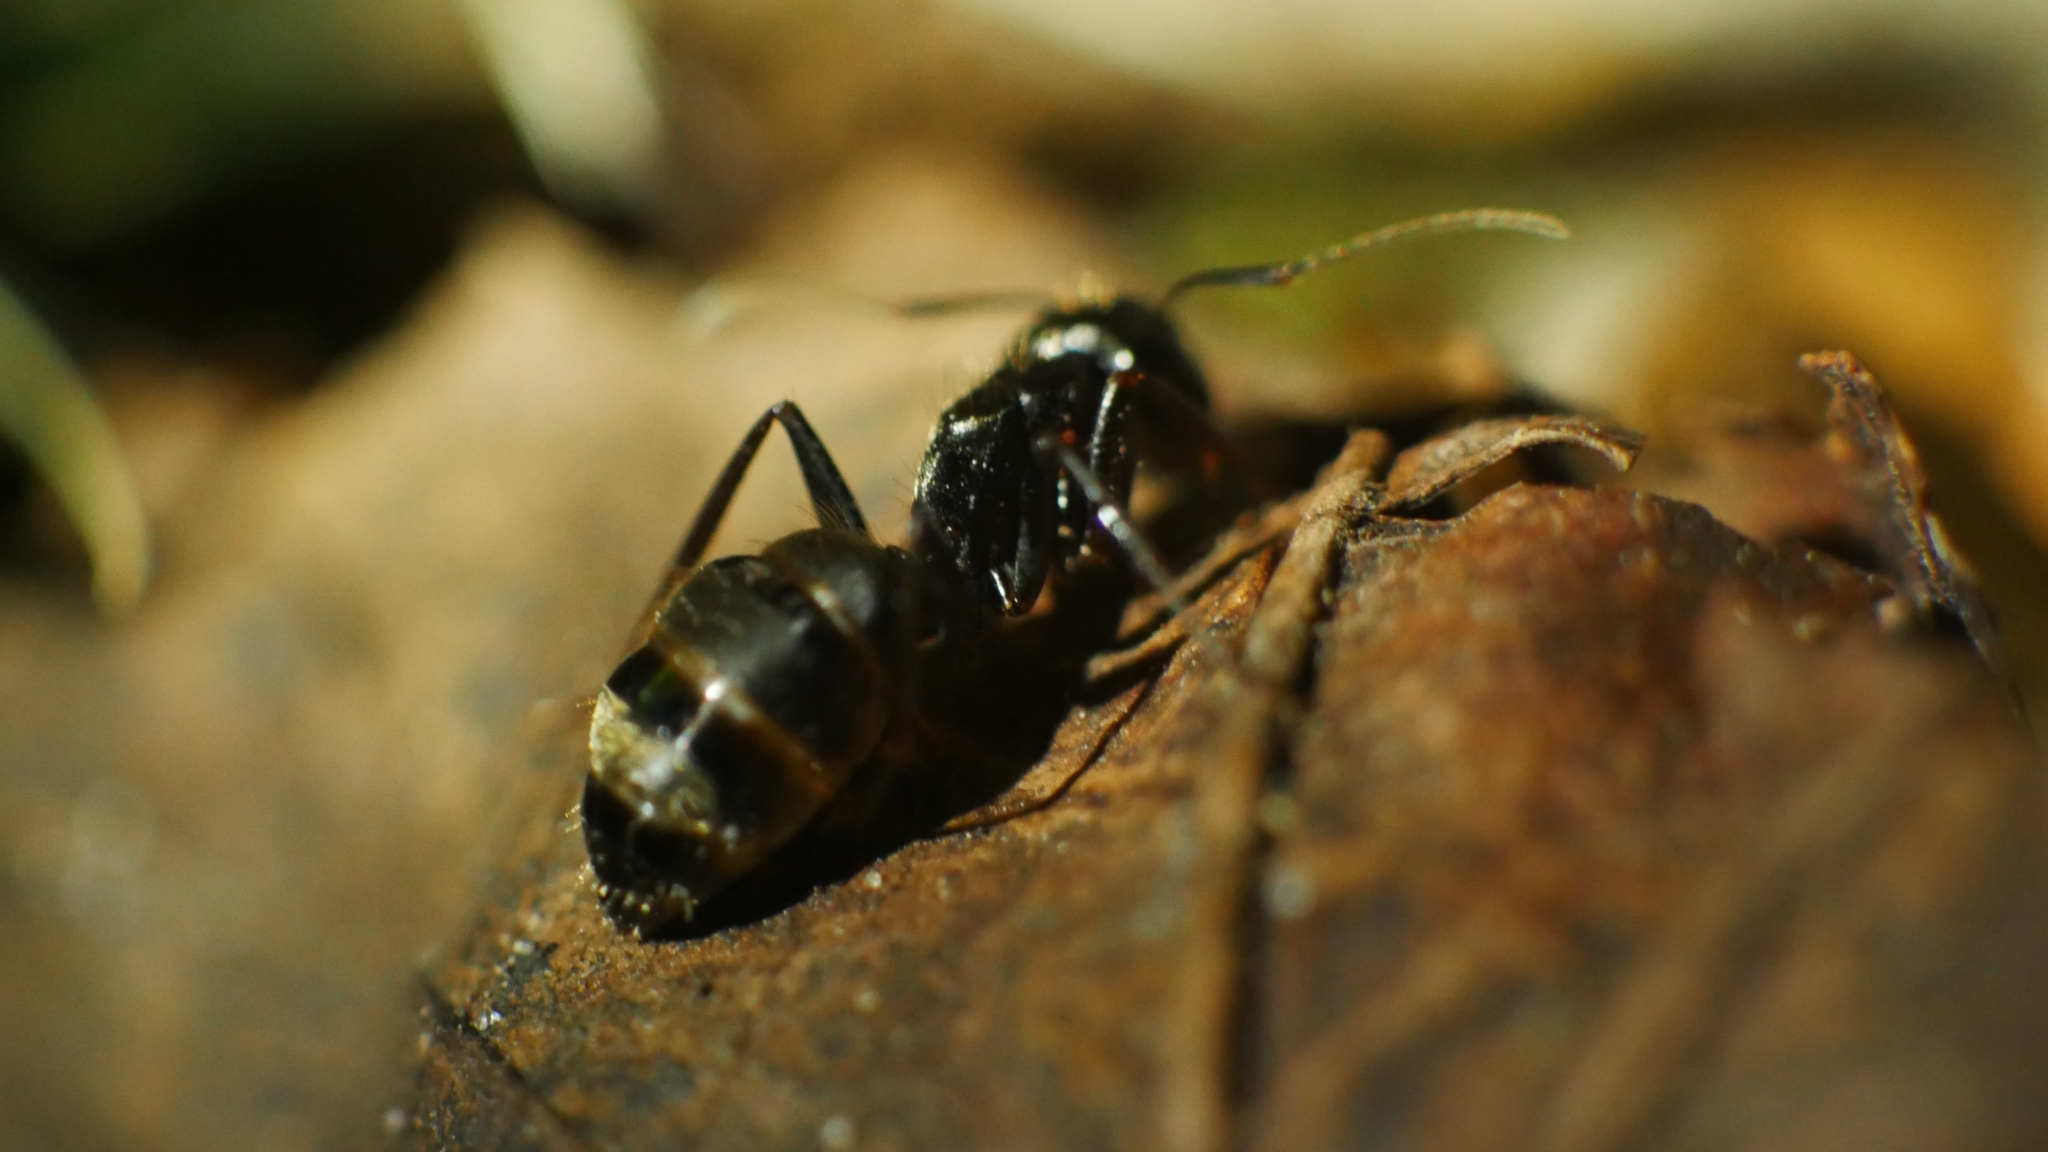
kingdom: Animalia
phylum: Arthropoda
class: Insecta
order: Hymenoptera
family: Formicidae
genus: Camponotus
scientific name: Camponotus pennsylvanicus
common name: Black carpenter ant
